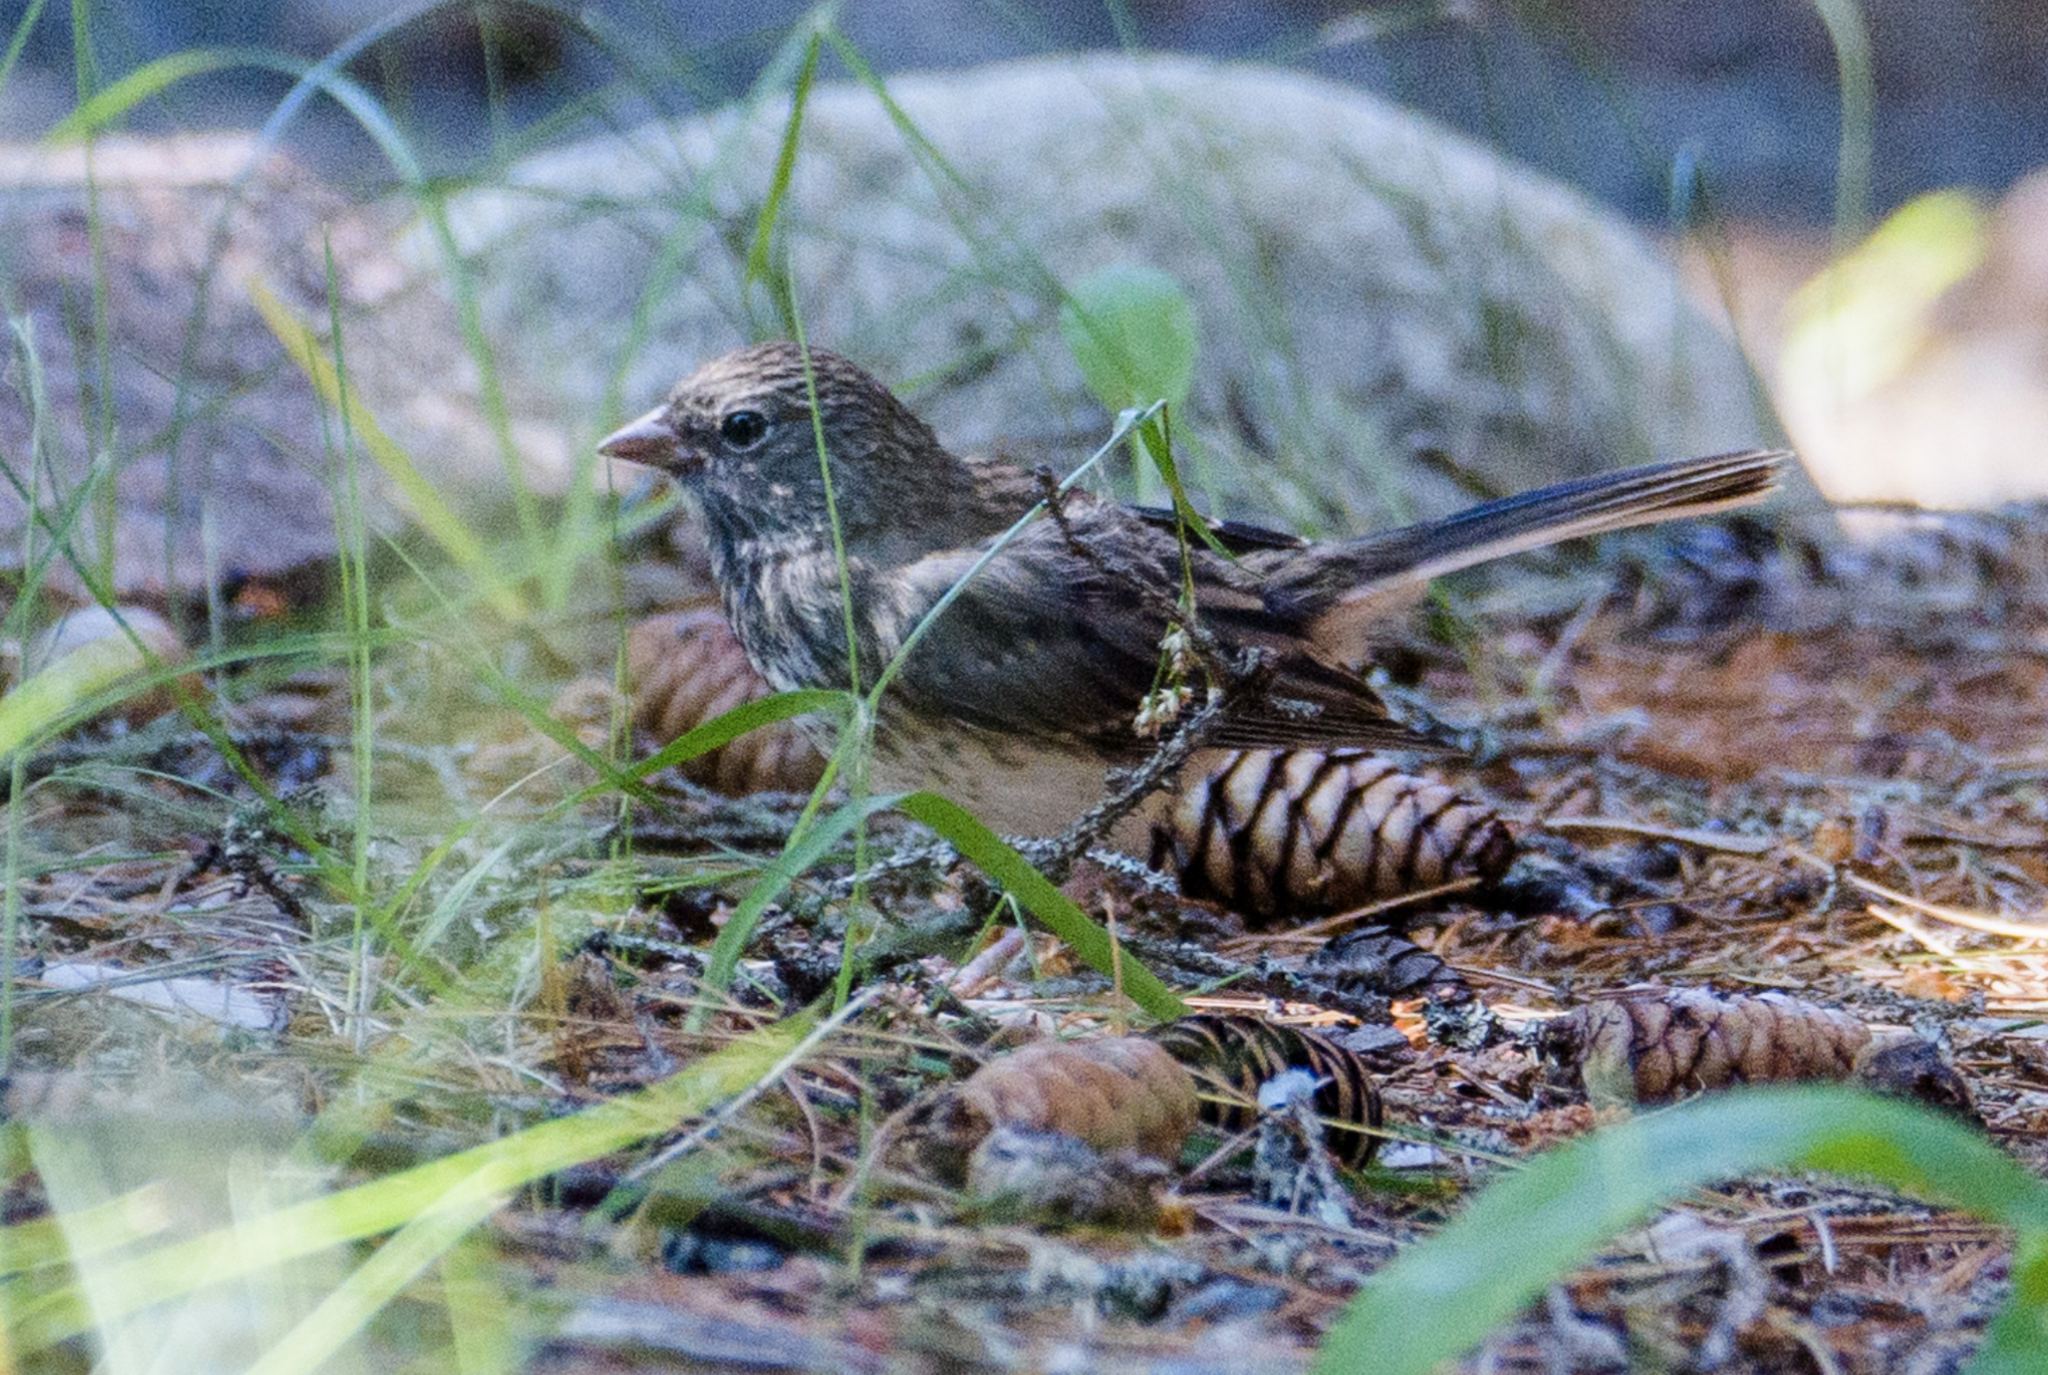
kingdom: Animalia
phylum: Chordata
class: Aves
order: Passeriformes
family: Passerellidae
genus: Junco
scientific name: Junco hyemalis
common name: Dark-eyed junco
